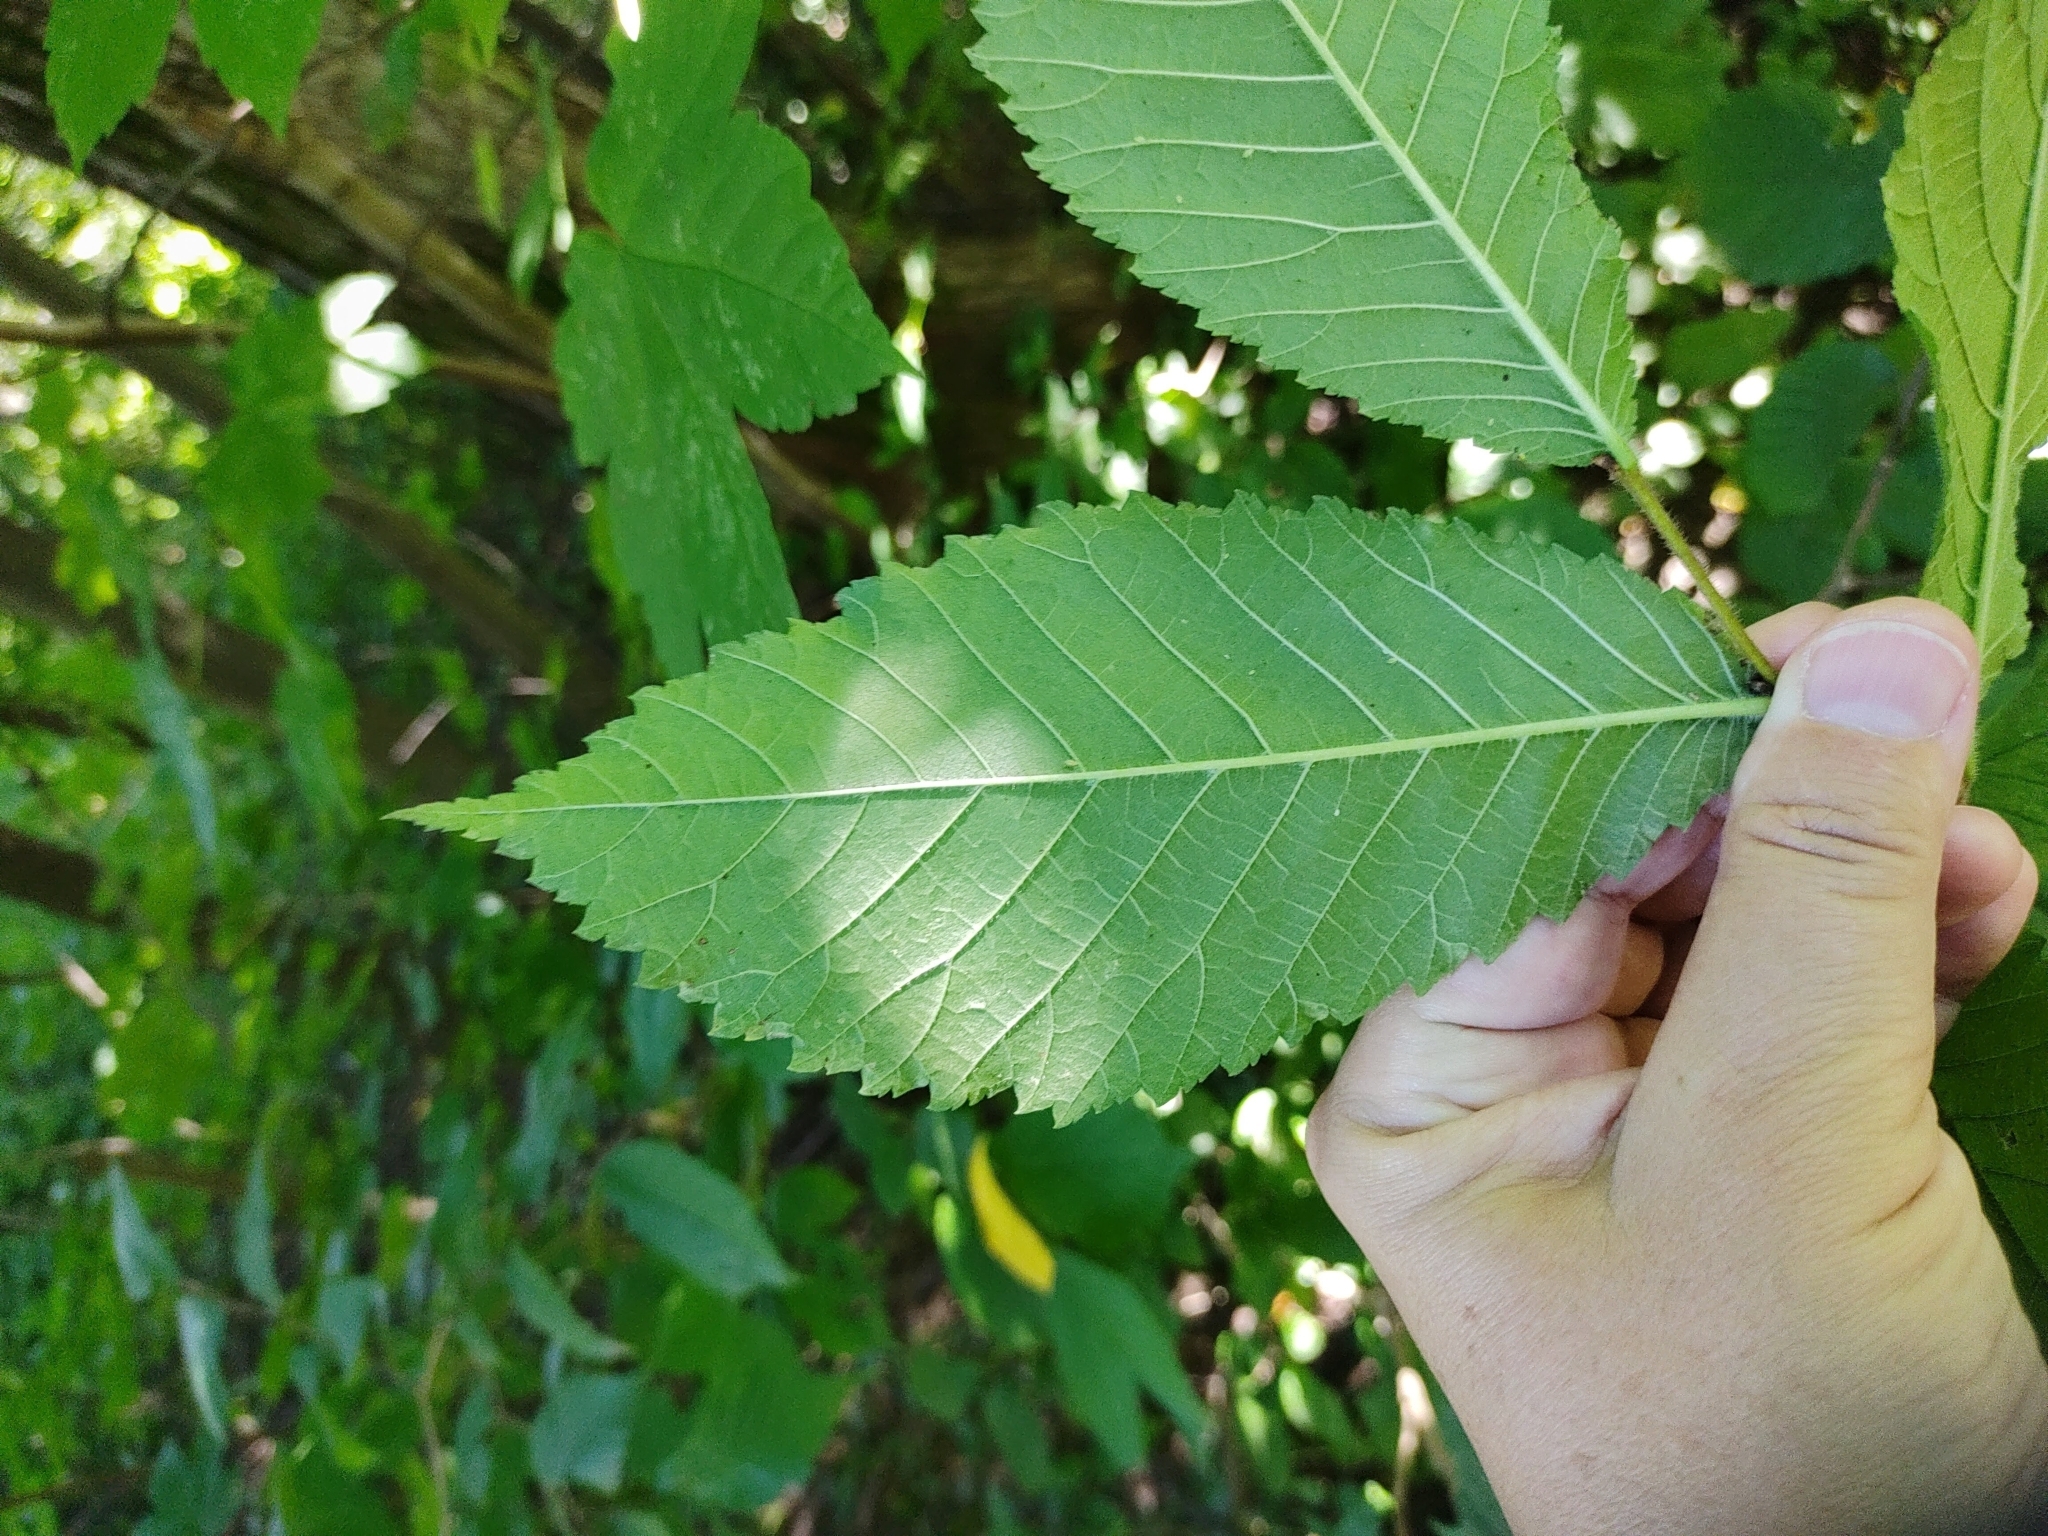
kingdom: Plantae
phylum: Tracheophyta
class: Magnoliopsida
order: Rosales
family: Ulmaceae
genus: Ulmus
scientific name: Ulmus glabra
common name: Wych elm
